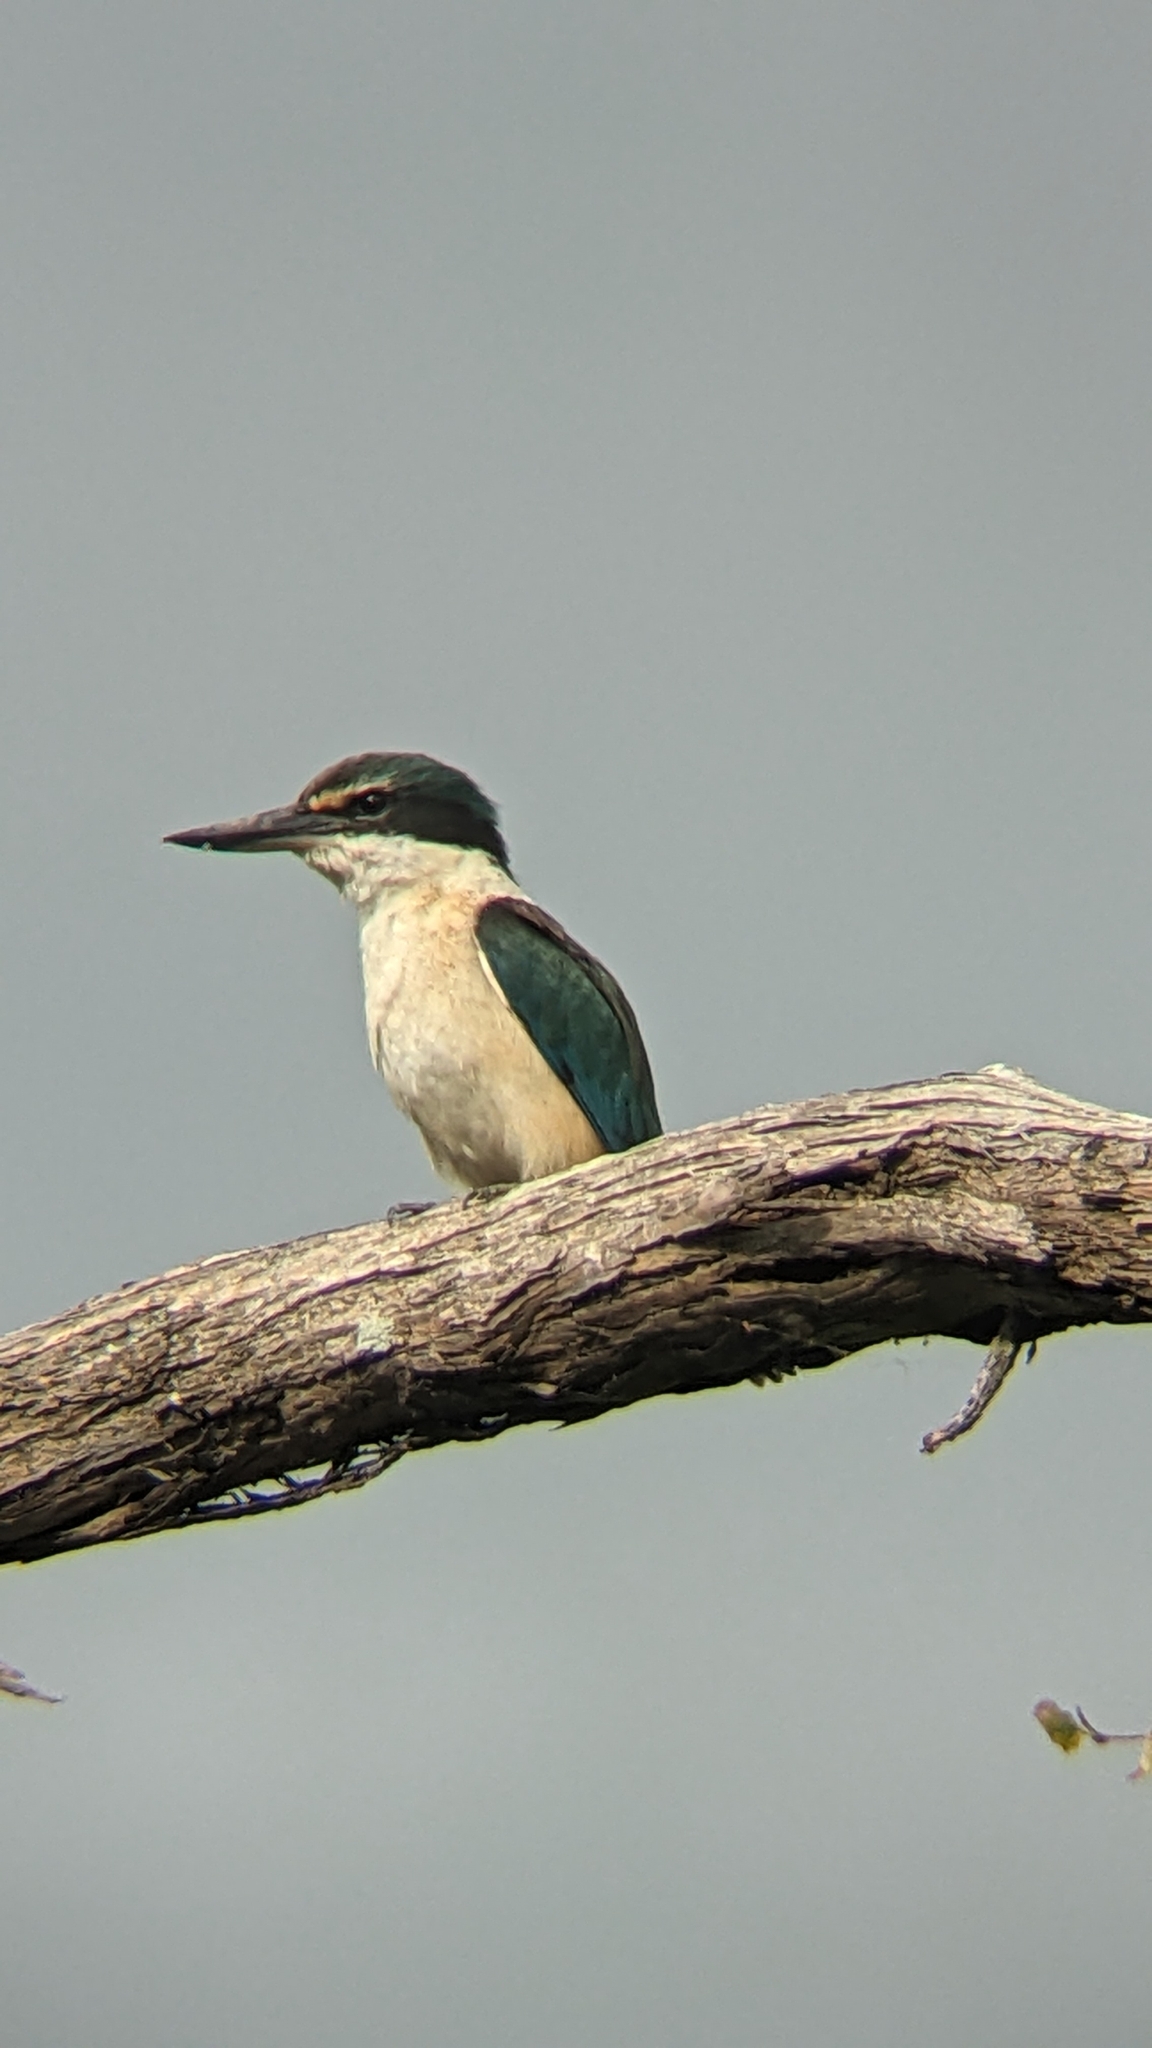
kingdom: Animalia
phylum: Chordata
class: Aves
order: Coraciiformes
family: Alcedinidae
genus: Todiramphus
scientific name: Todiramphus sanctus
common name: Sacred kingfisher
